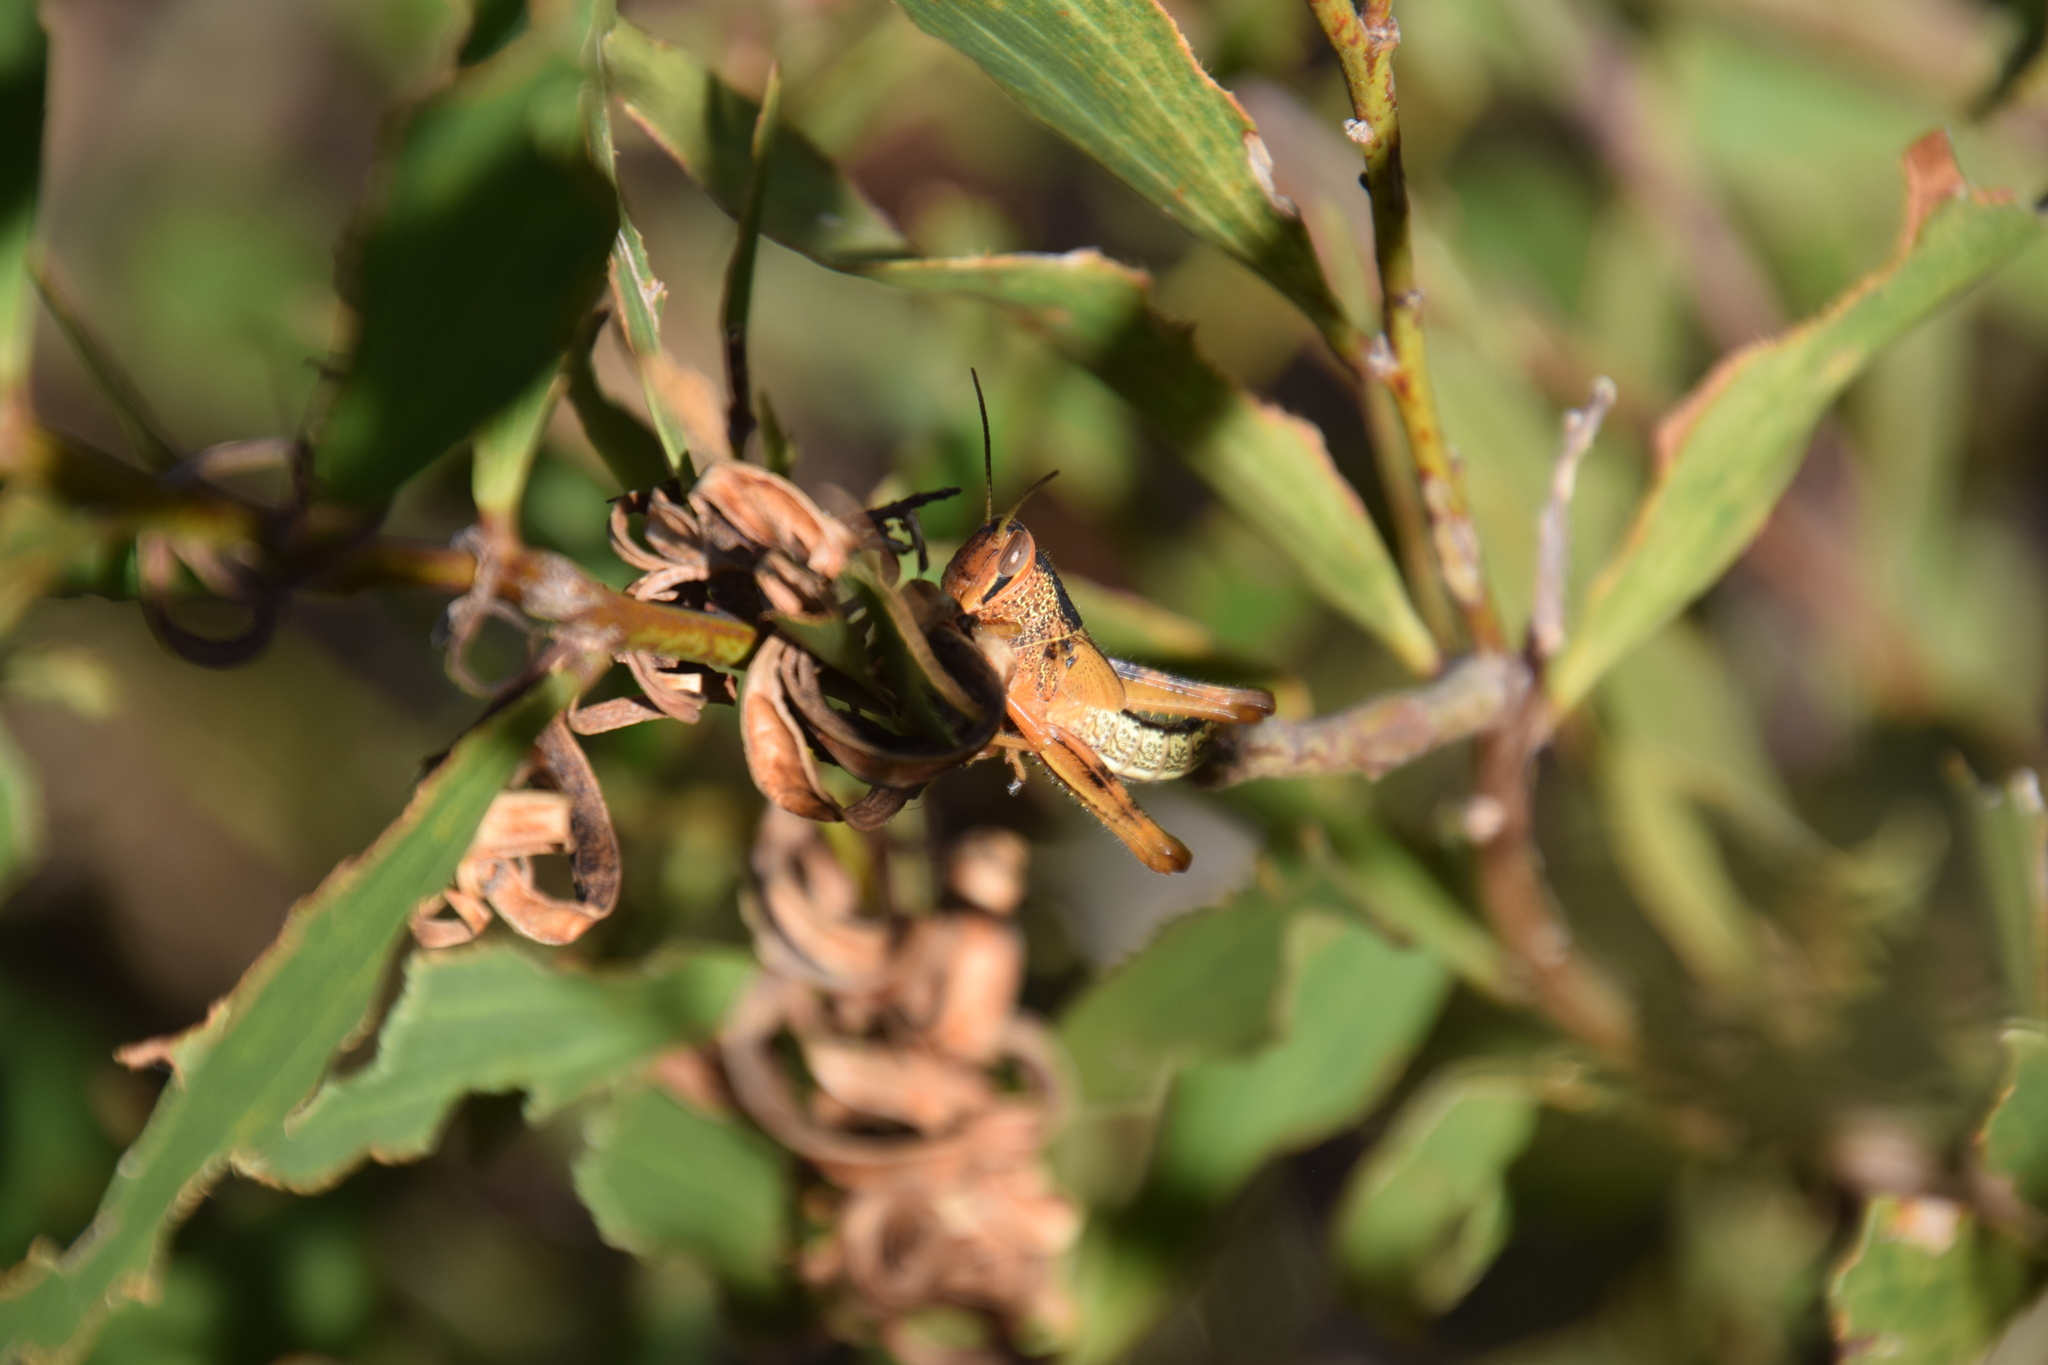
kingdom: Animalia
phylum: Arthropoda
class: Insecta
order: Orthoptera
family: Acrididae
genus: Valanga
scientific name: Valanga irregularis
